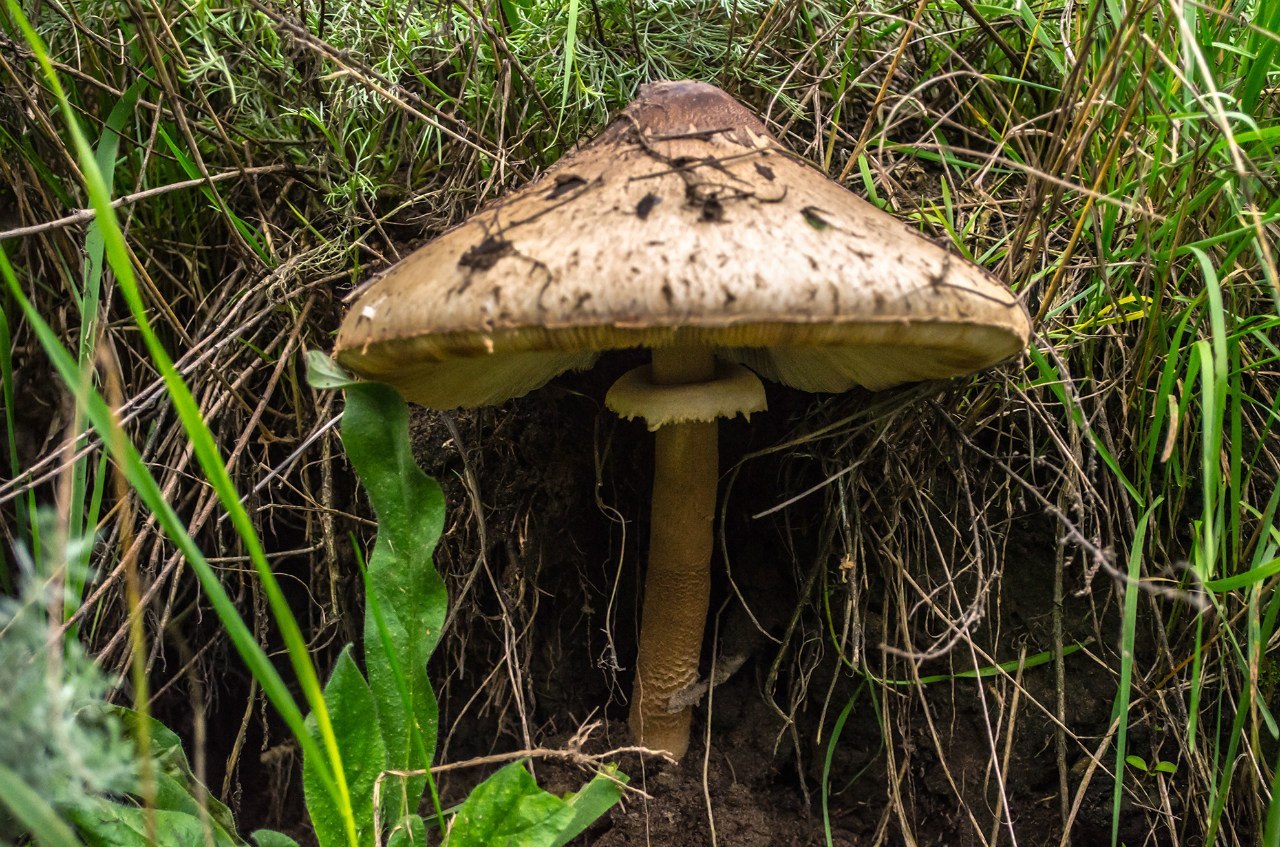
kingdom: Fungi
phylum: Basidiomycota
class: Agaricomycetes
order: Agaricales
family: Agaricaceae
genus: Macrolepiota
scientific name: Macrolepiota procera
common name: Parasol
